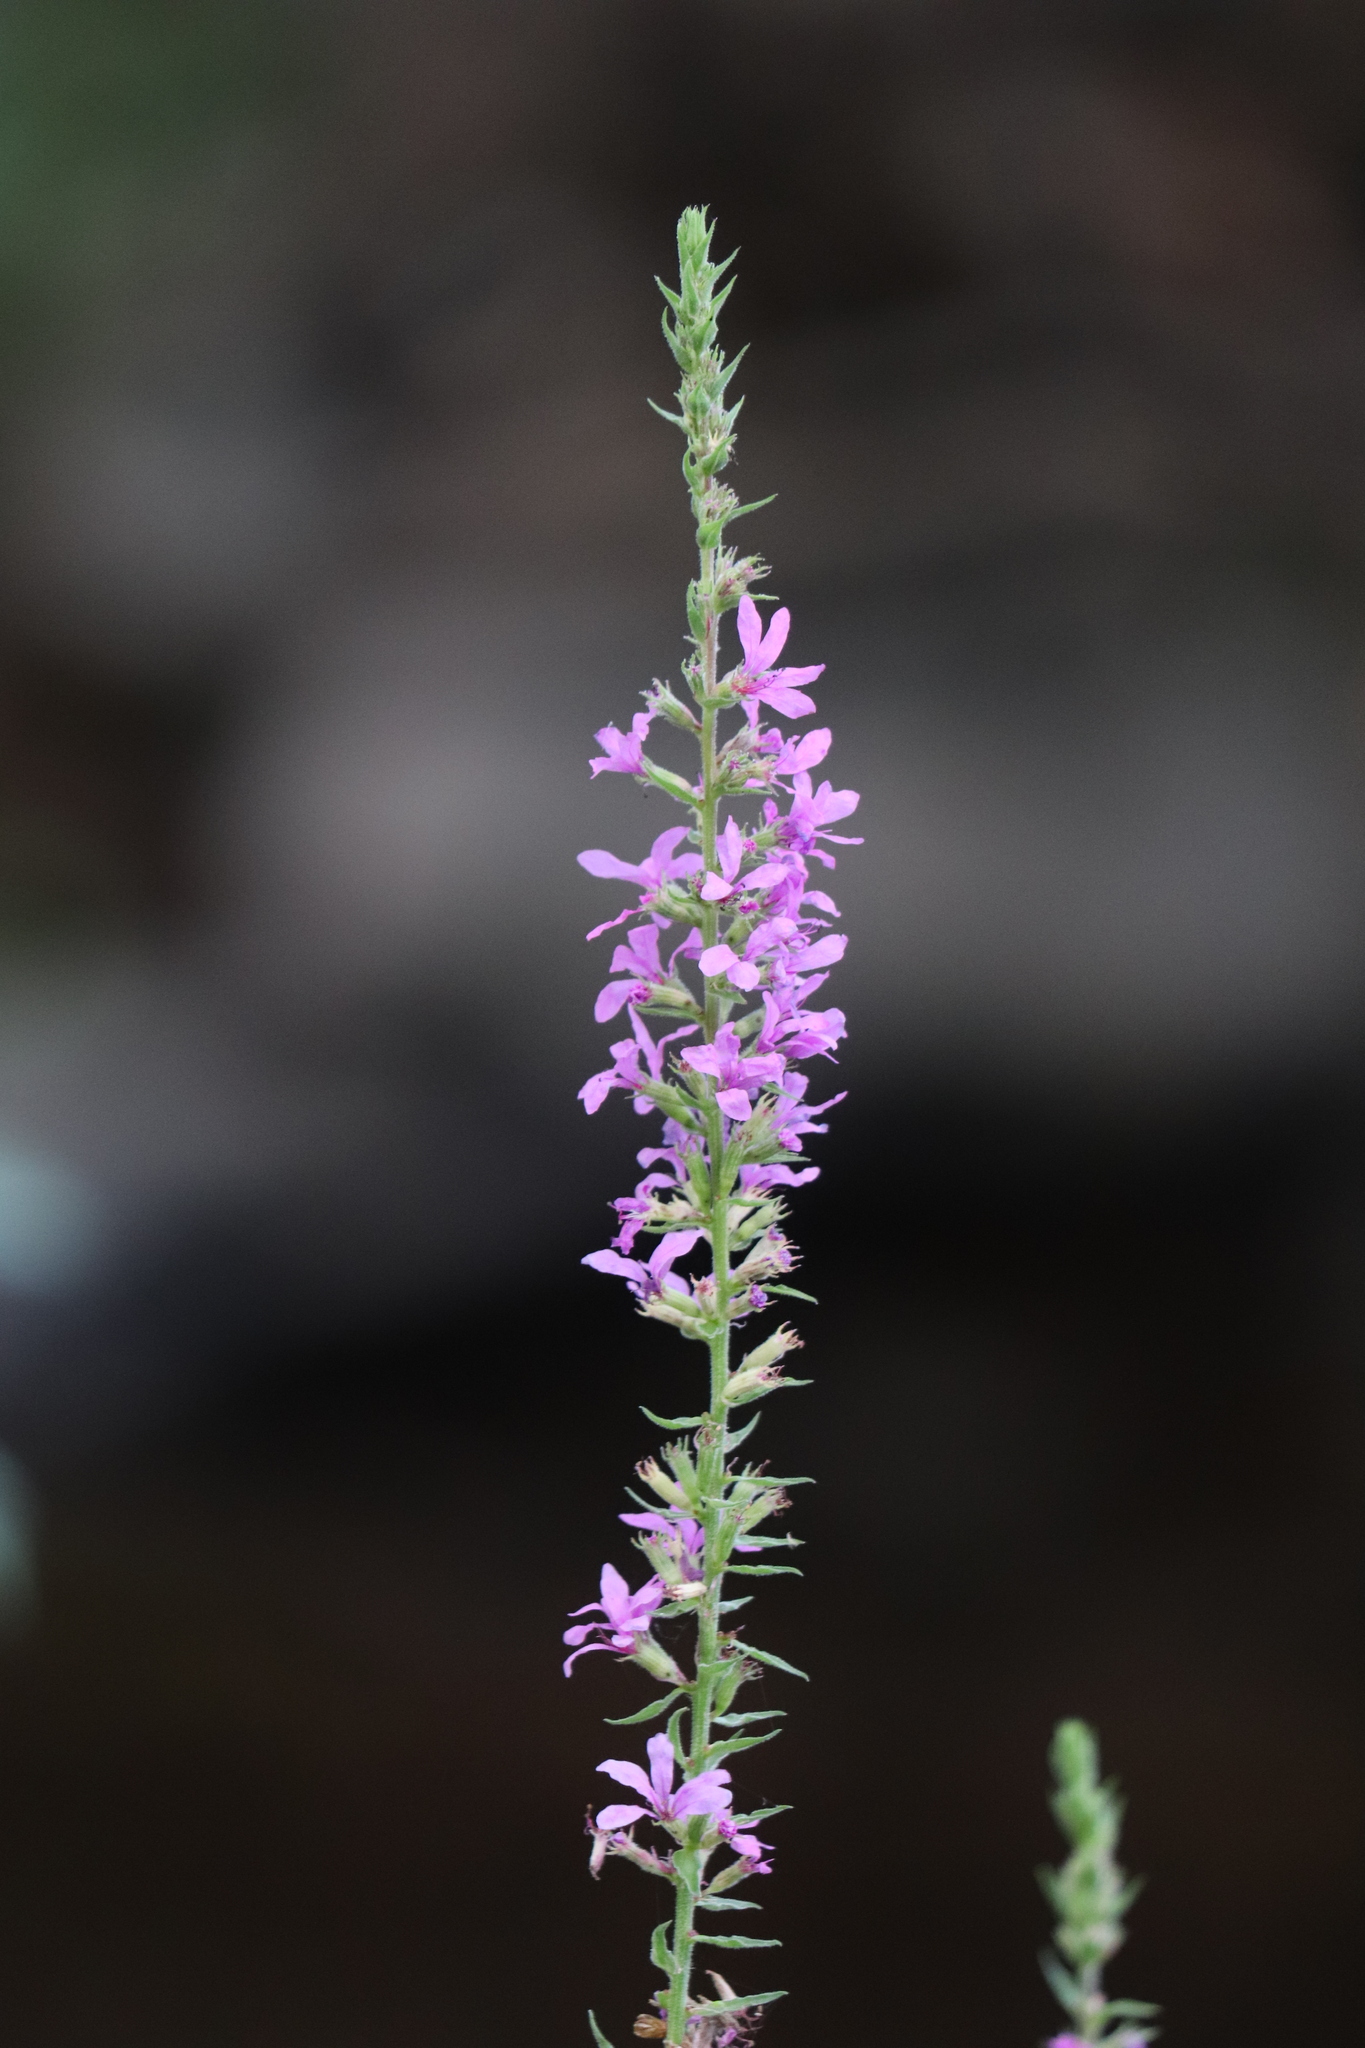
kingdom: Plantae
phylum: Tracheophyta
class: Magnoliopsida
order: Myrtales
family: Lythraceae
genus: Lythrum
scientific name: Lythrum salicaria
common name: Purple loosestrife
